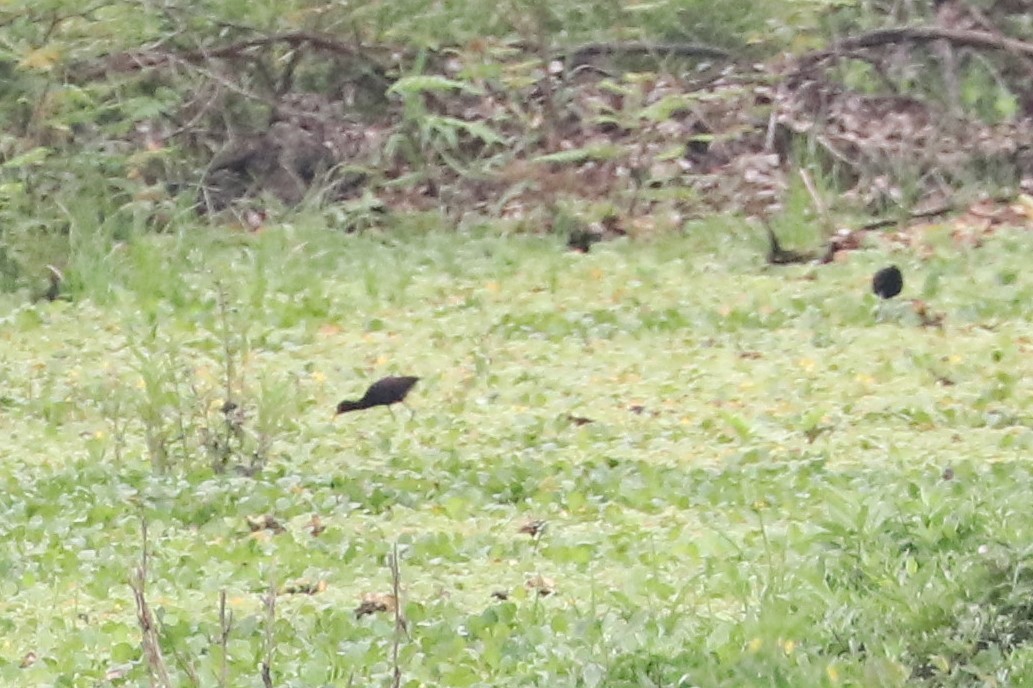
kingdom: Animalia
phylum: Chordata
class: Aves
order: Charadriiformes
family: Jacanidae
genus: Jacana
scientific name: Jacana jacana
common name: Wattled jacana
